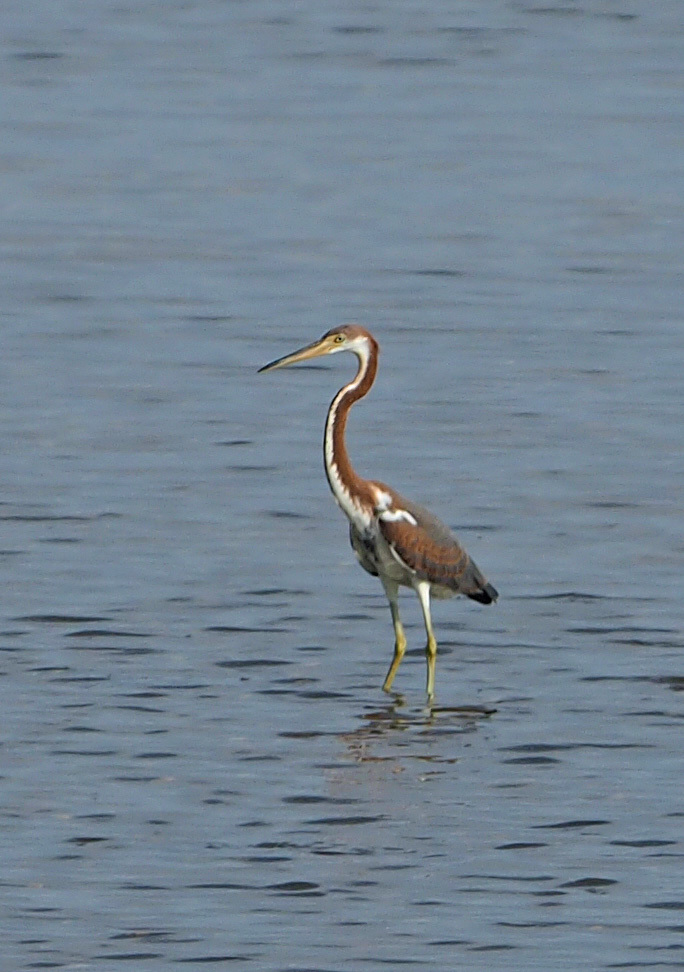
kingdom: Animalia
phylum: Chordata
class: Aves
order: Pelecaniformes
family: Ardeidae
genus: Egretta
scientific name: Egretta tricolor
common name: Tricolored heron
